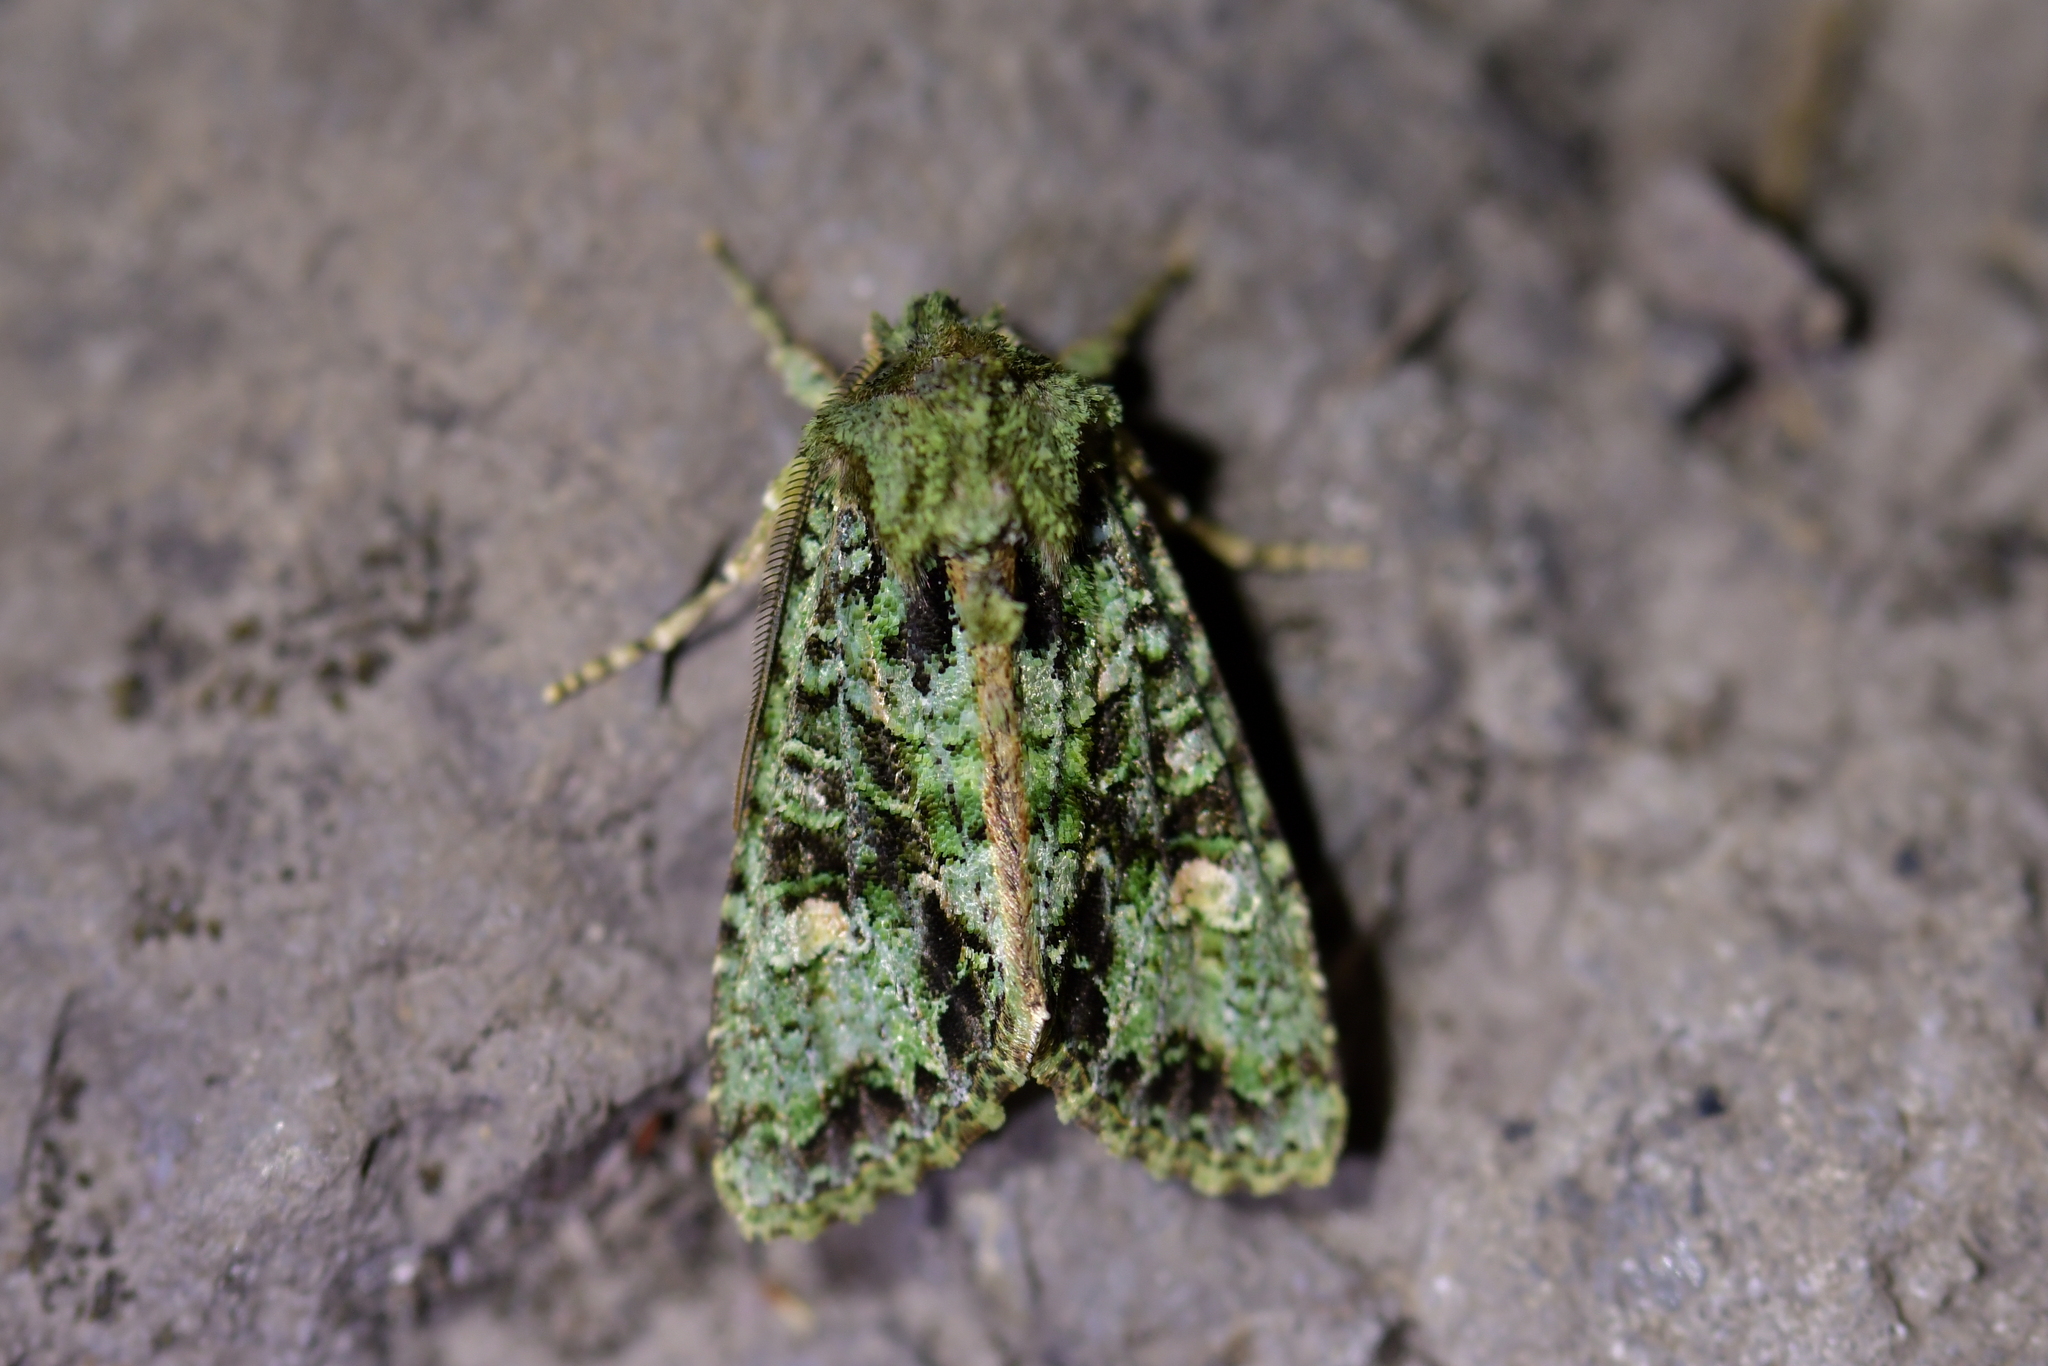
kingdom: Animalia
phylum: Arthropoda
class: Insecta
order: Lepidoptera
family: Noctuidae
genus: Ichneutica
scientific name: Ichneutica
